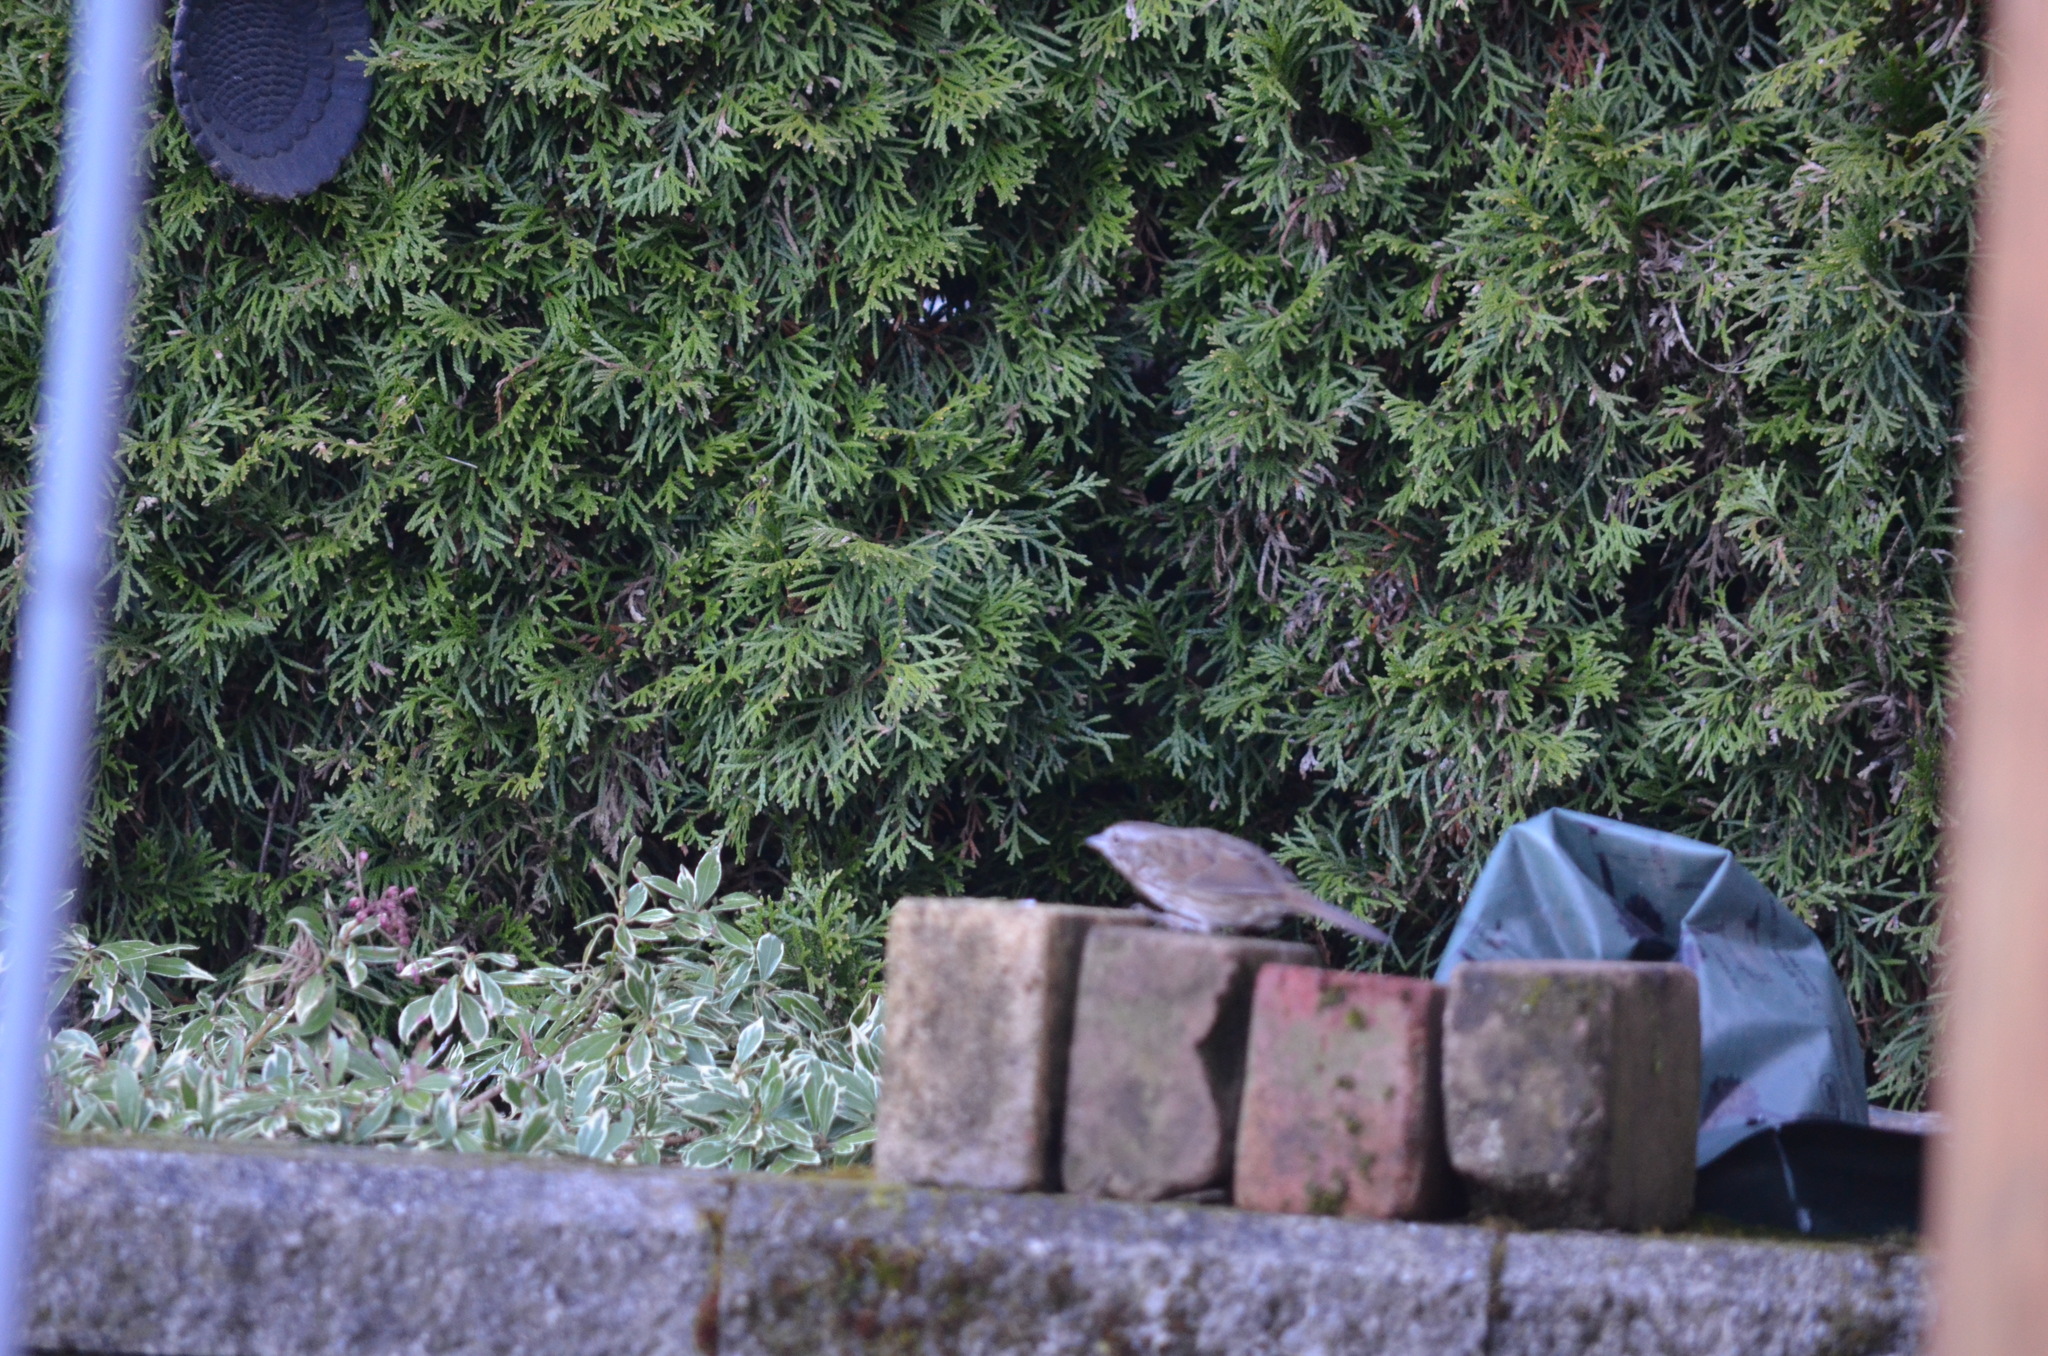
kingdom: Animalia
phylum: Chordata
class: Aves
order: Passeriformes
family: Passerellidae
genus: Melospiza
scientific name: Melospiza melodia
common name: Song sparrow
